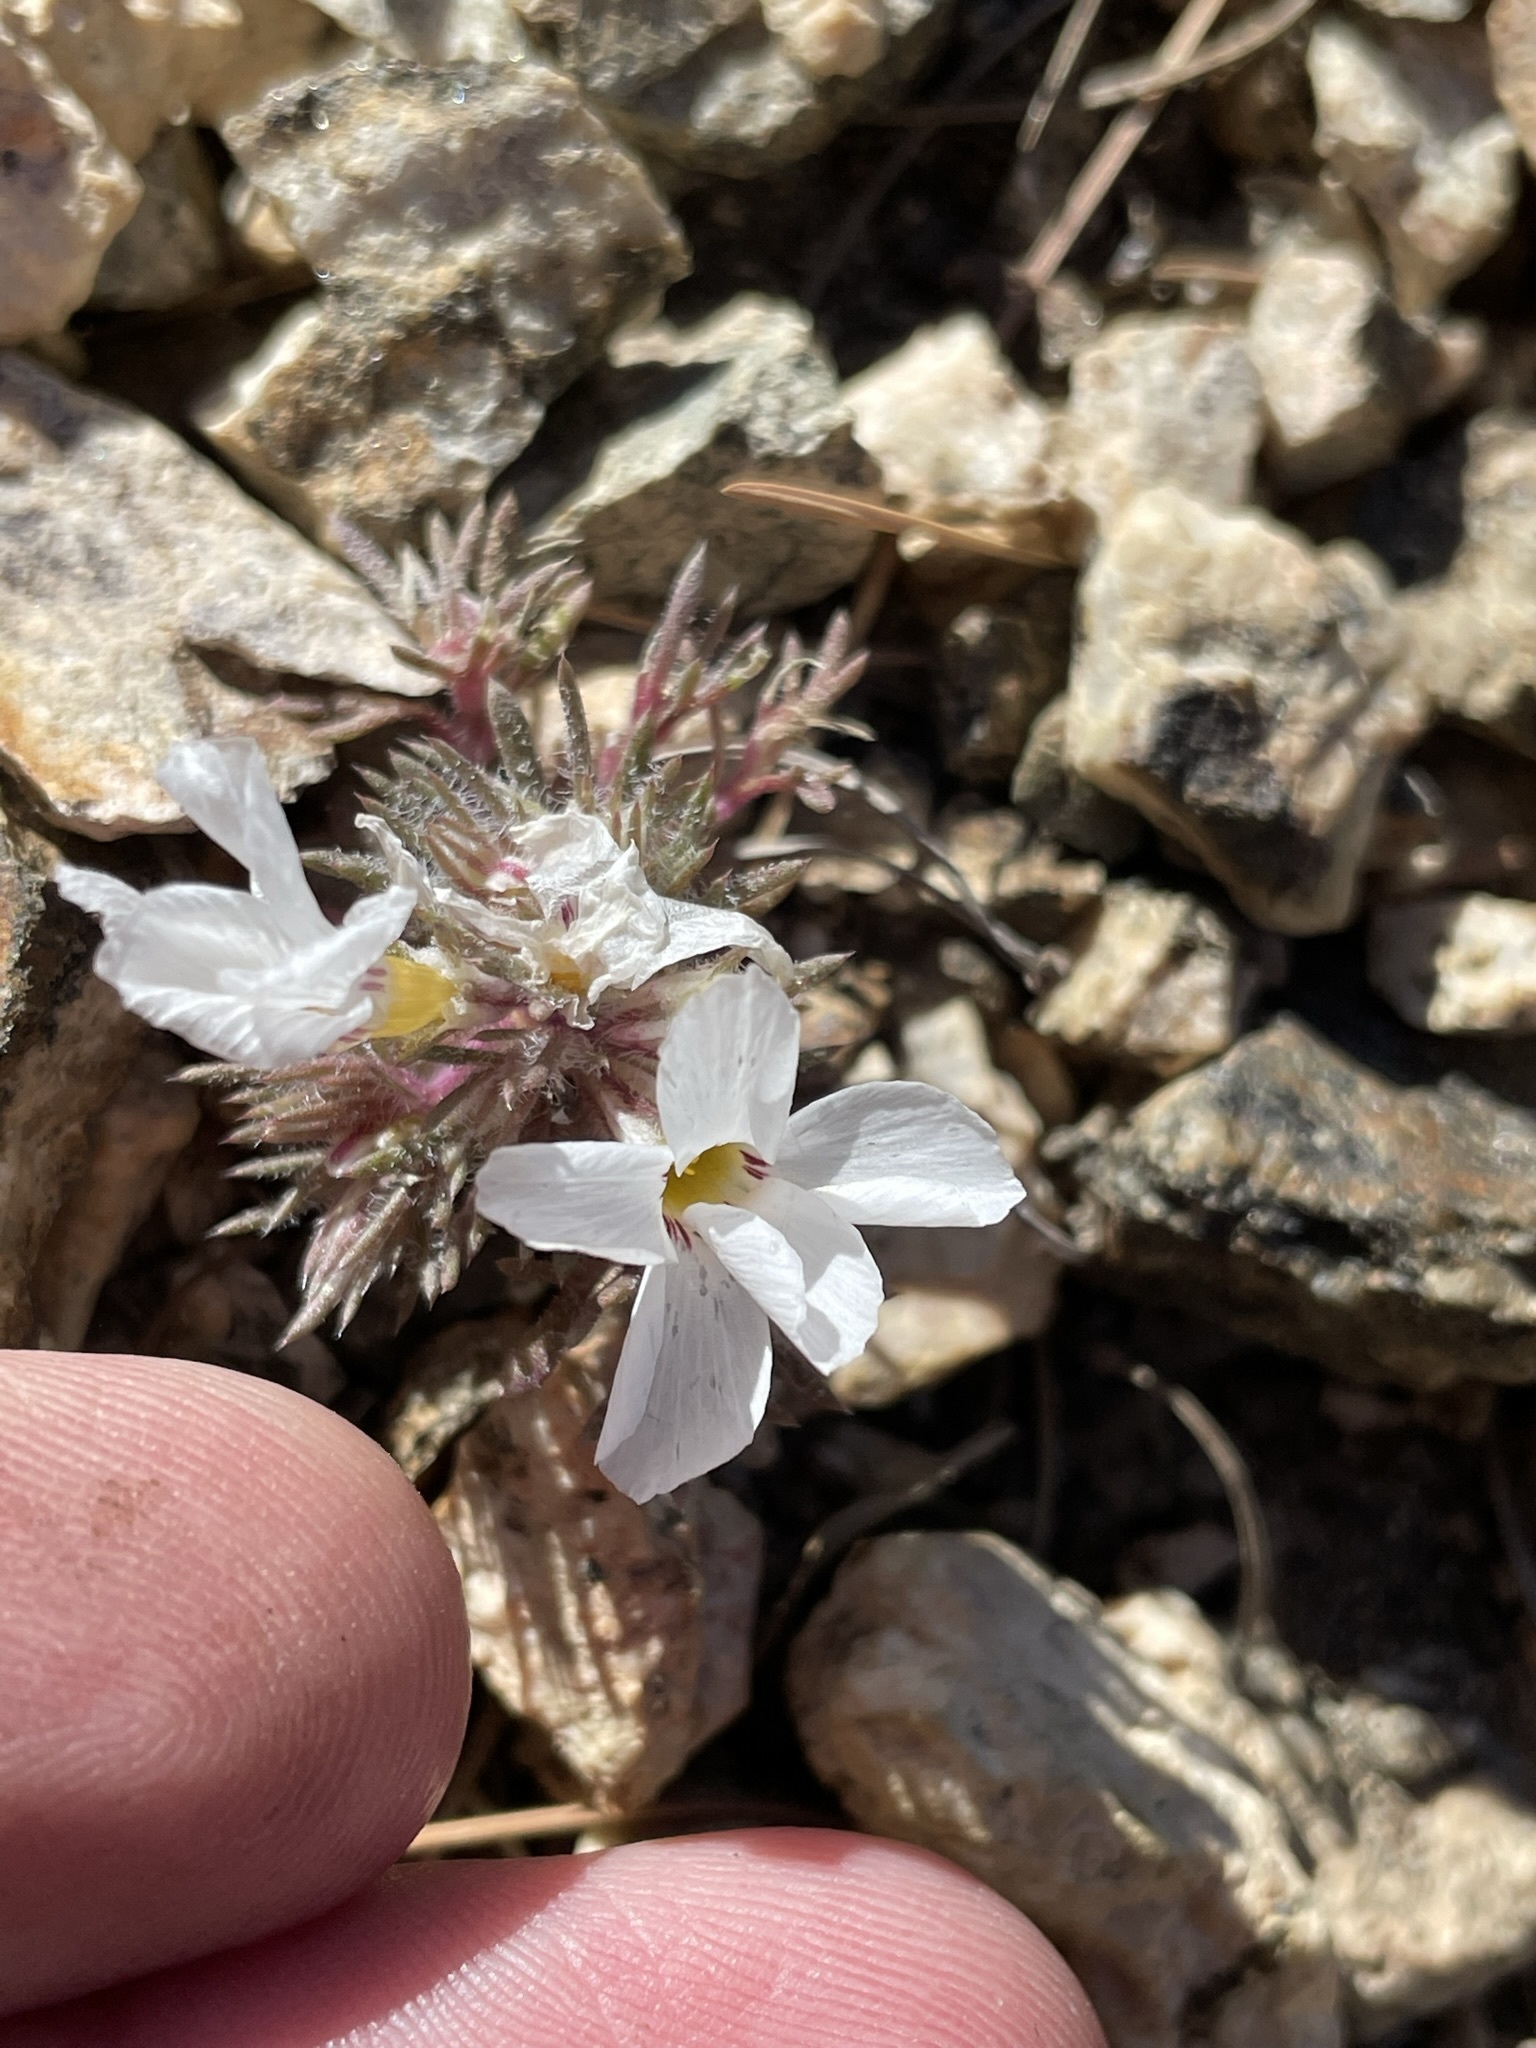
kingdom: Plantae
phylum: Tracheophyta
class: Magnoliopsida
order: Ericales
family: Polemoniaceae
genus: Linanthus
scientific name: Linanthus concinnus
